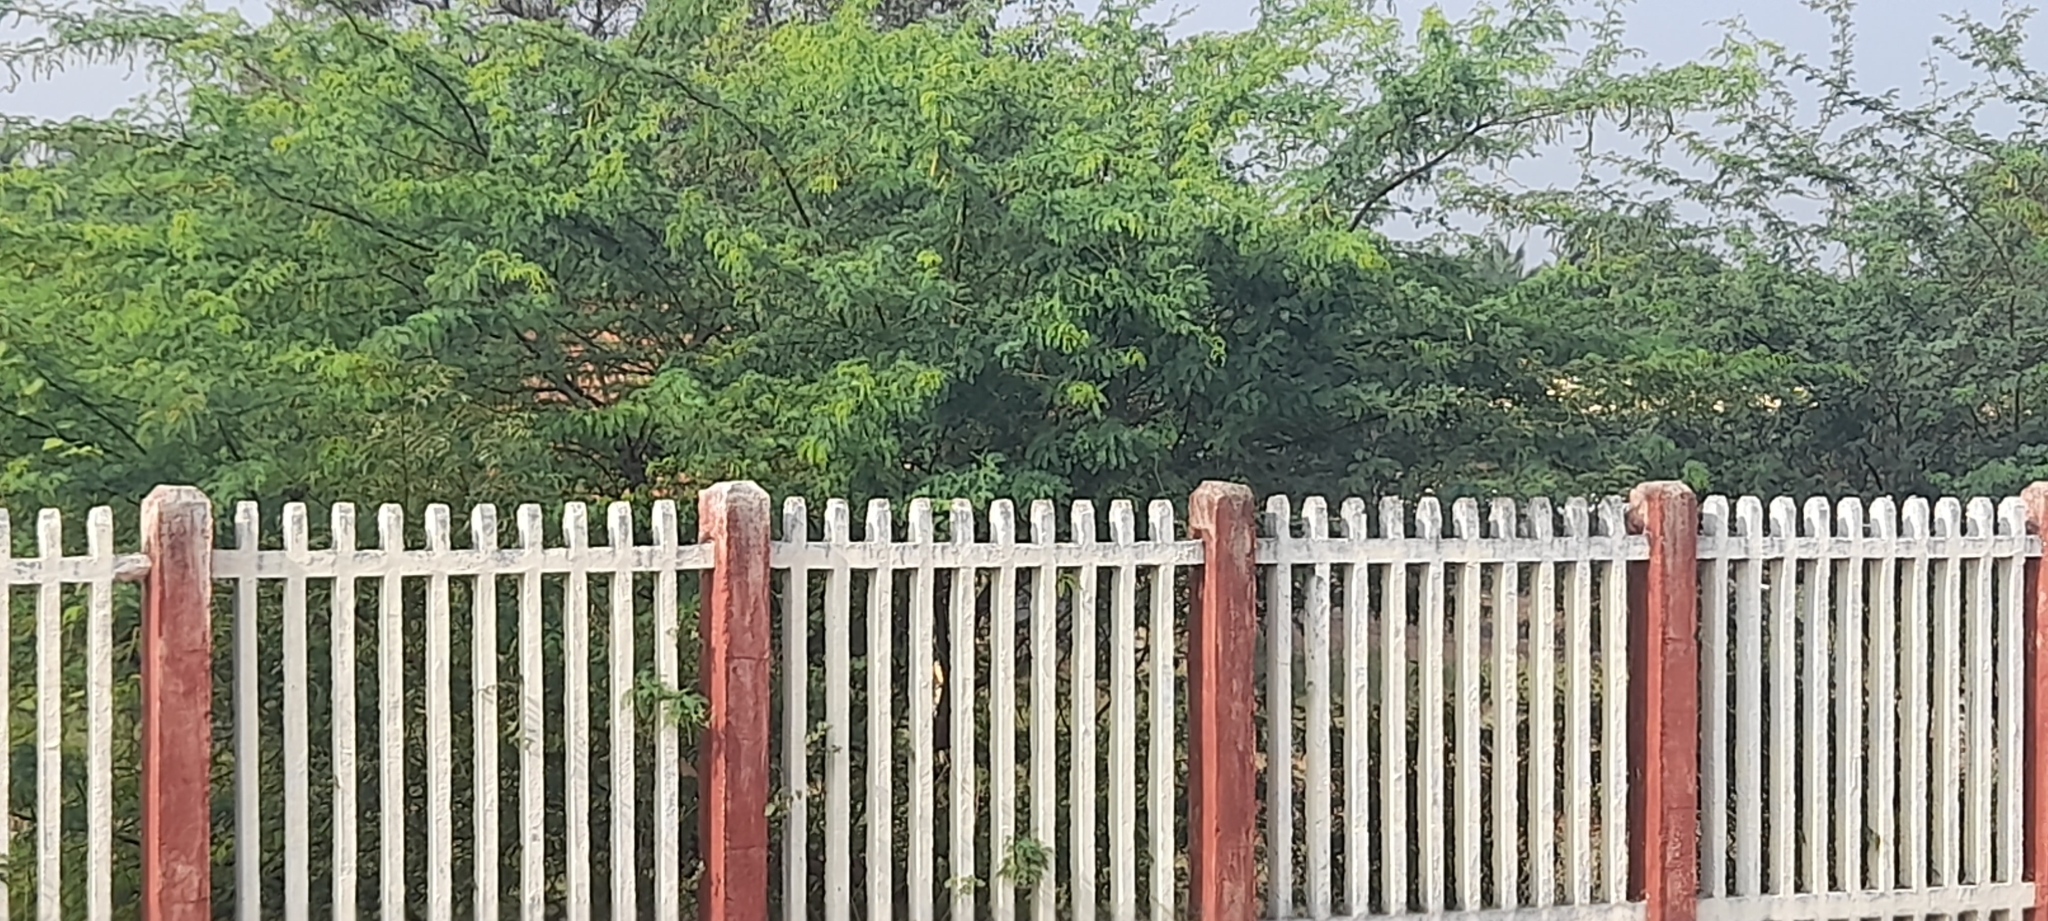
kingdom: Plantae
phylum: Tracheophyta
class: Magnoliopsida
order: Fabales
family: Fabaceae
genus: Prosopis
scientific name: Prosopis juliflora
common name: Mesquite
